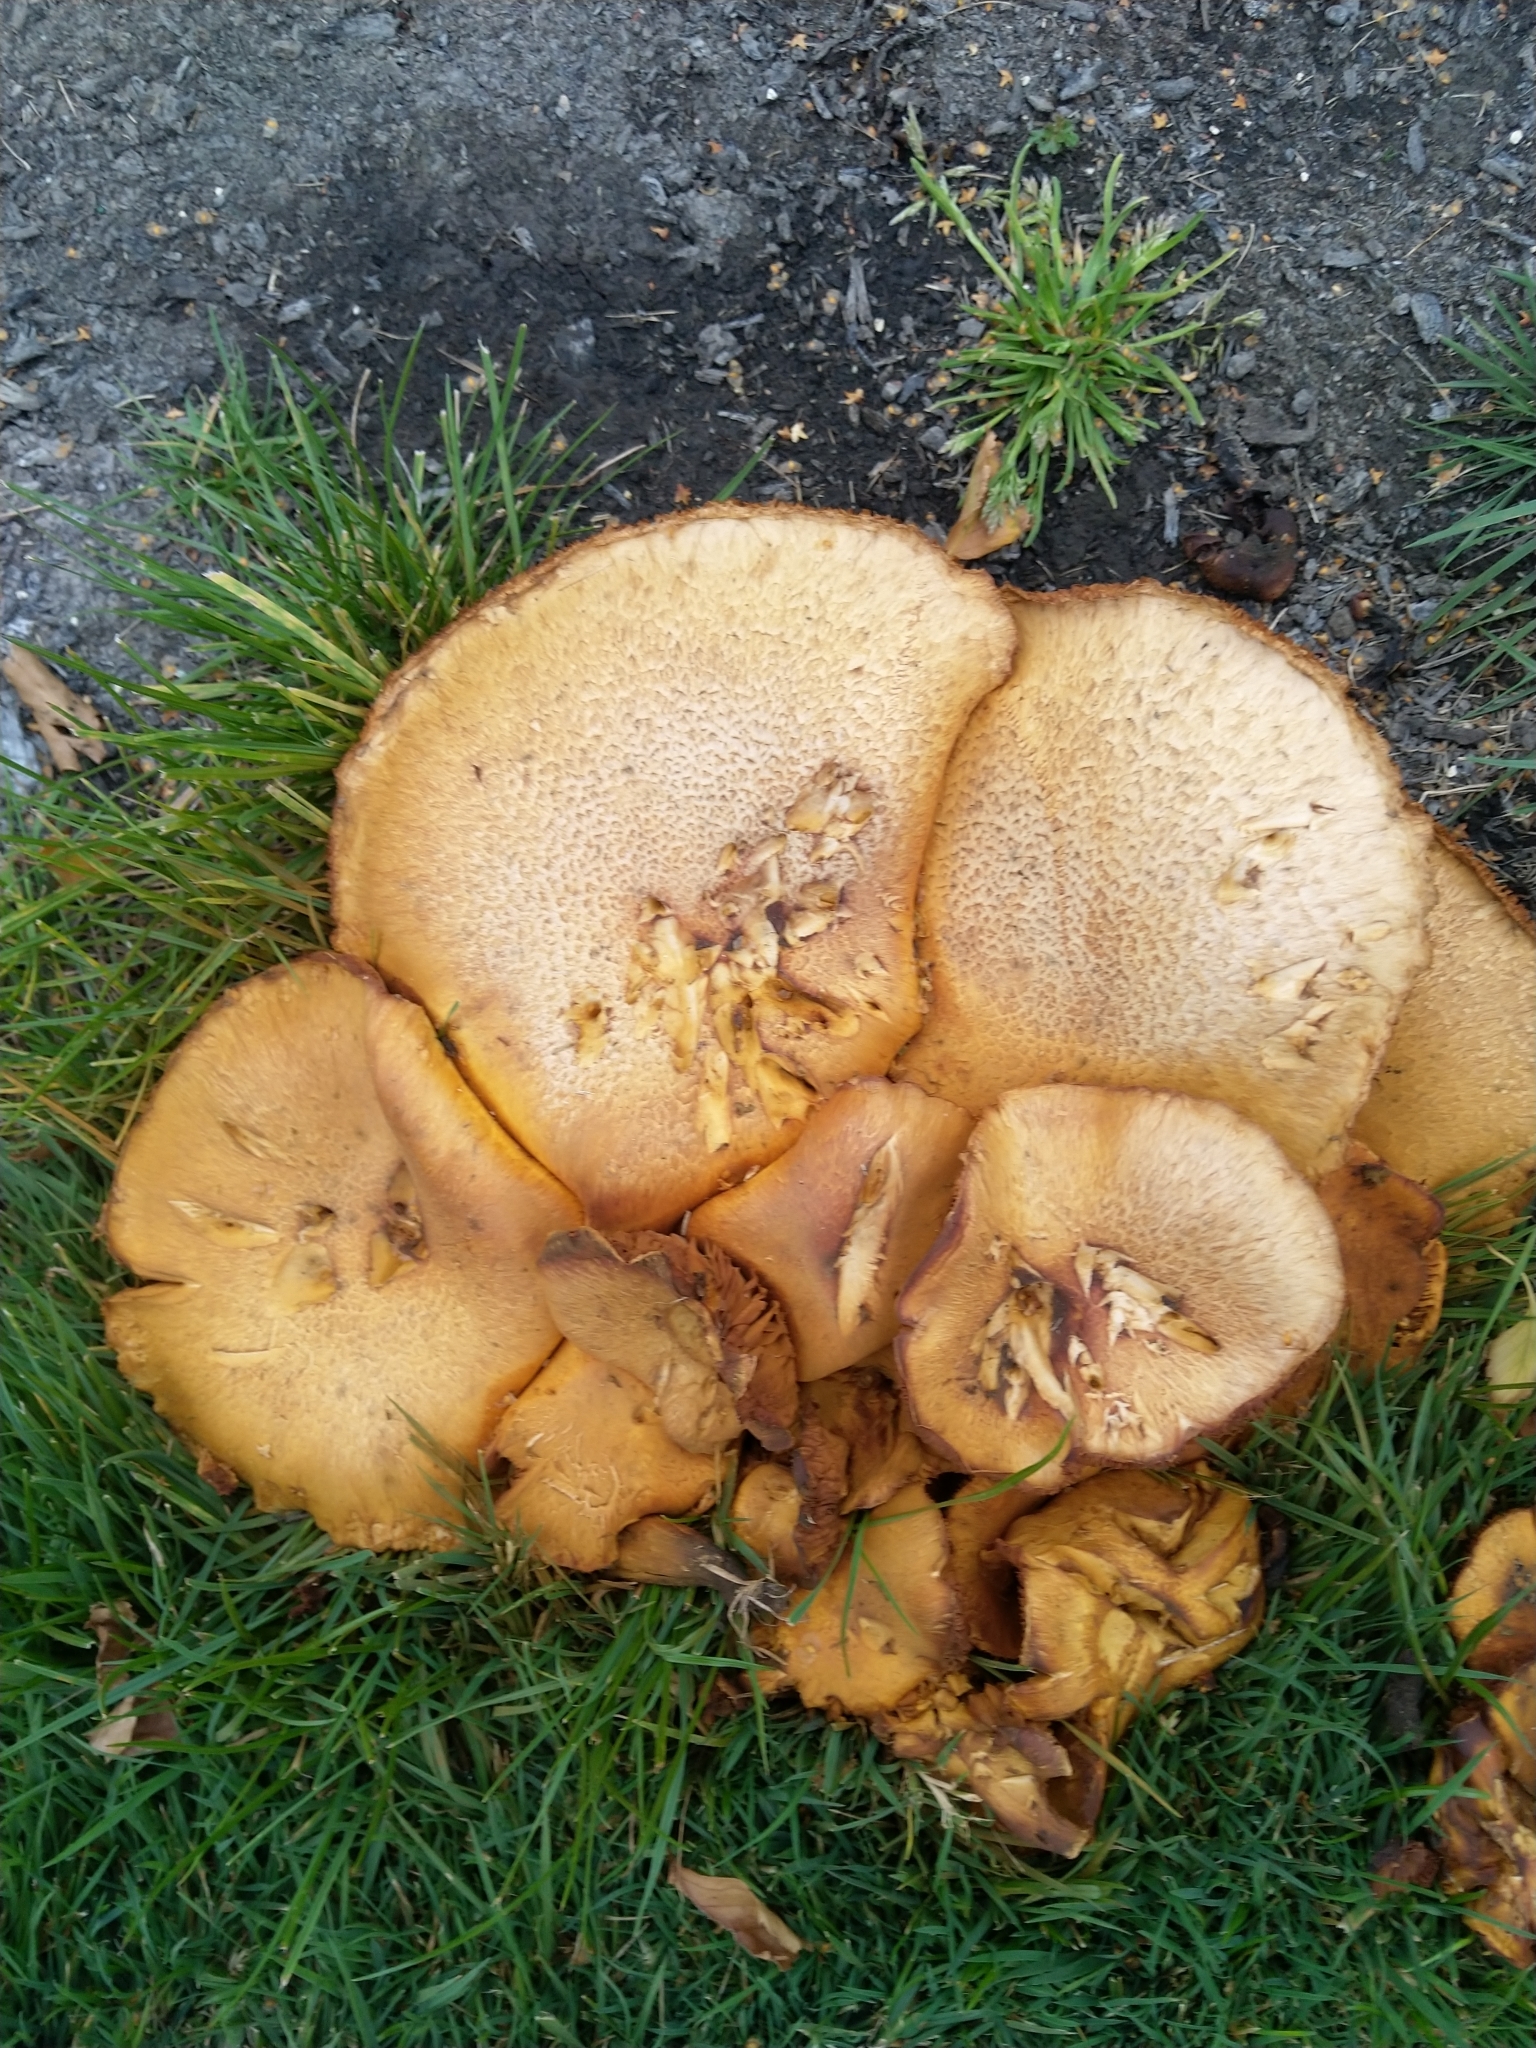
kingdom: Fungi
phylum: Basidiomycota
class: Agaricomycetes
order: Agaricales
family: Hymenogastraceae
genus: Gymnopilus
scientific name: Gymnopilus junonius
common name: Spectacular rustgill
